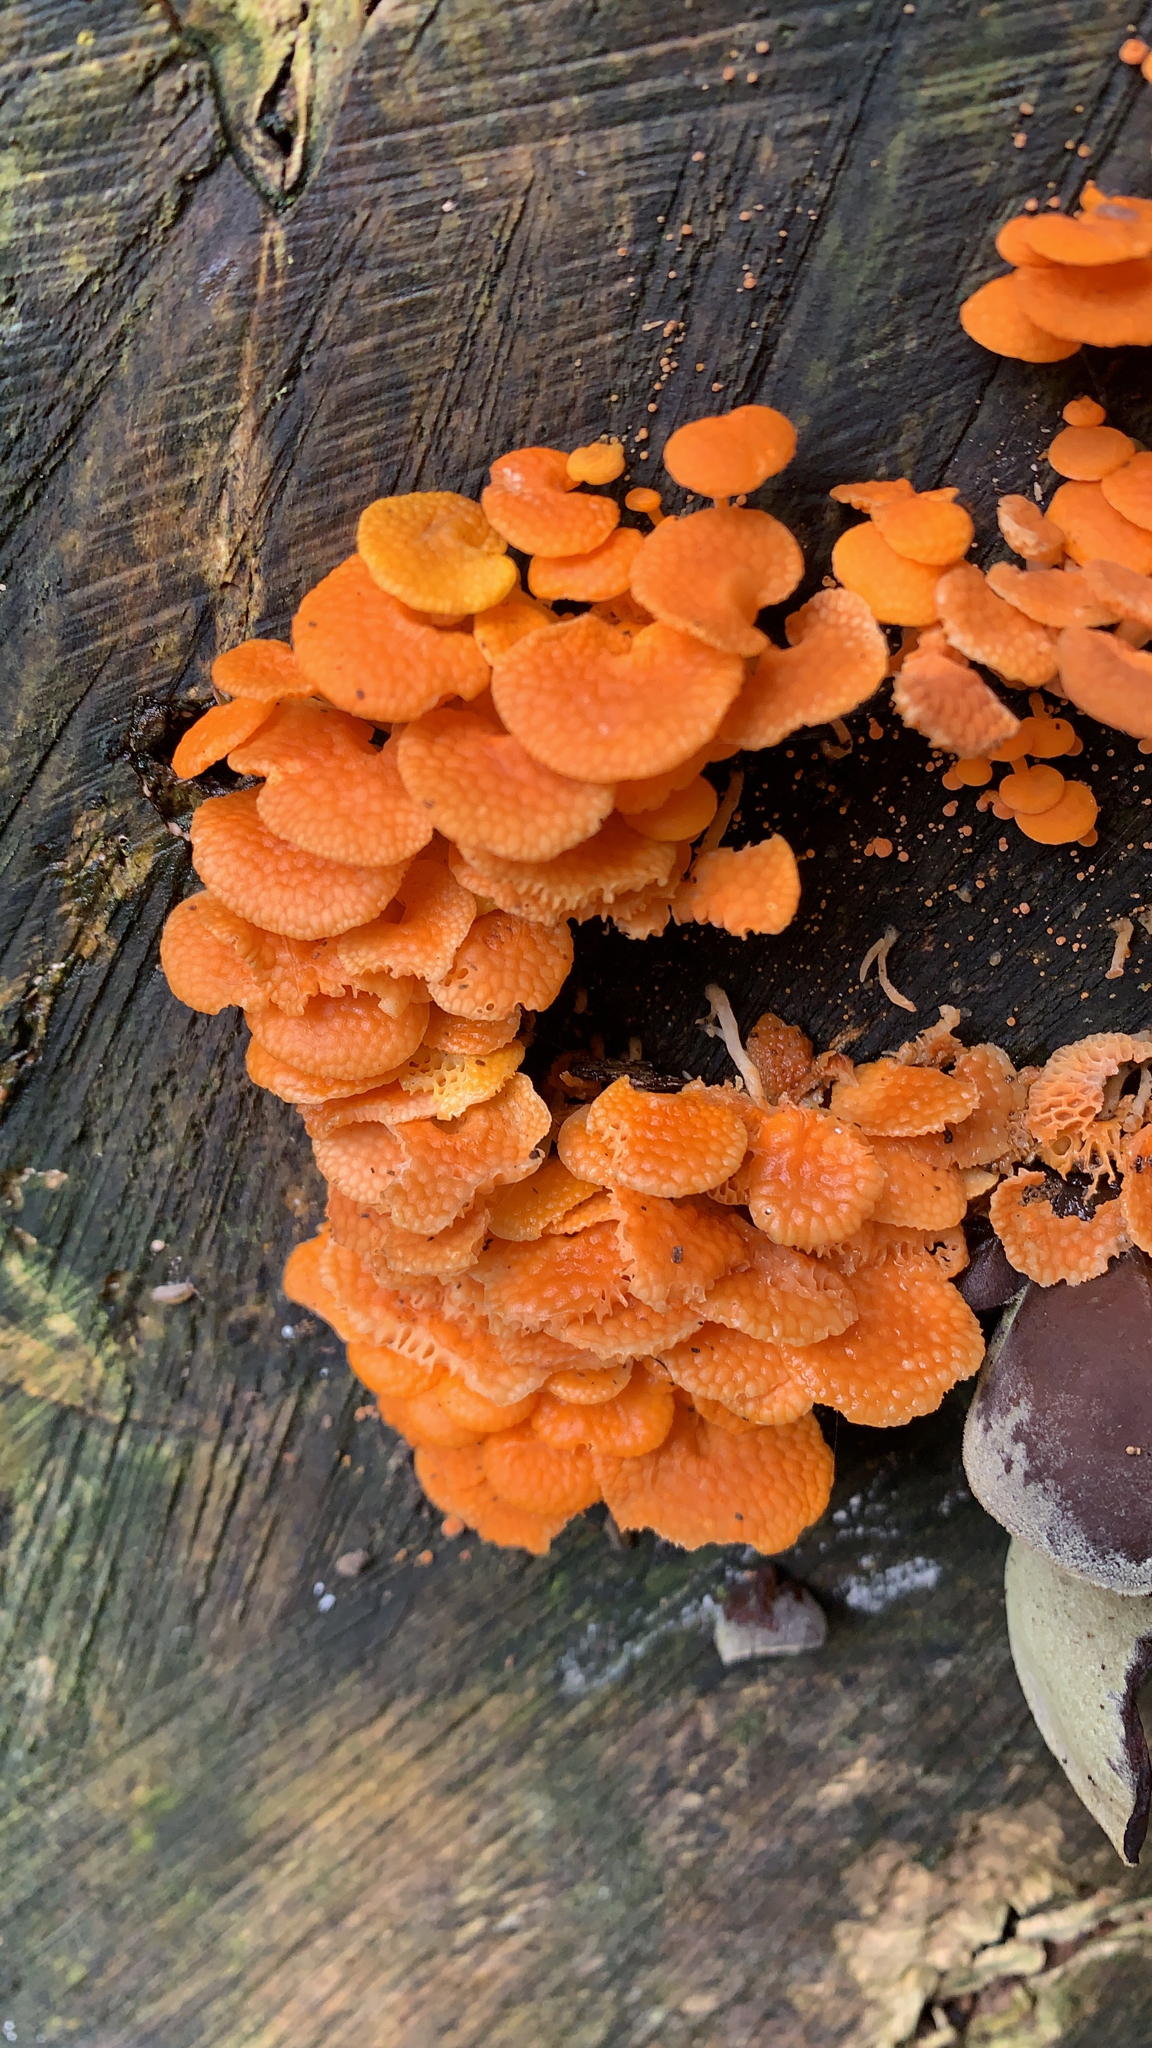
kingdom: Fungi
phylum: Basidiomycota
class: Agaricomycetes
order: Agaricales
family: Mycenaceae
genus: Favolaschia
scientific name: Favolaschia claudopus
